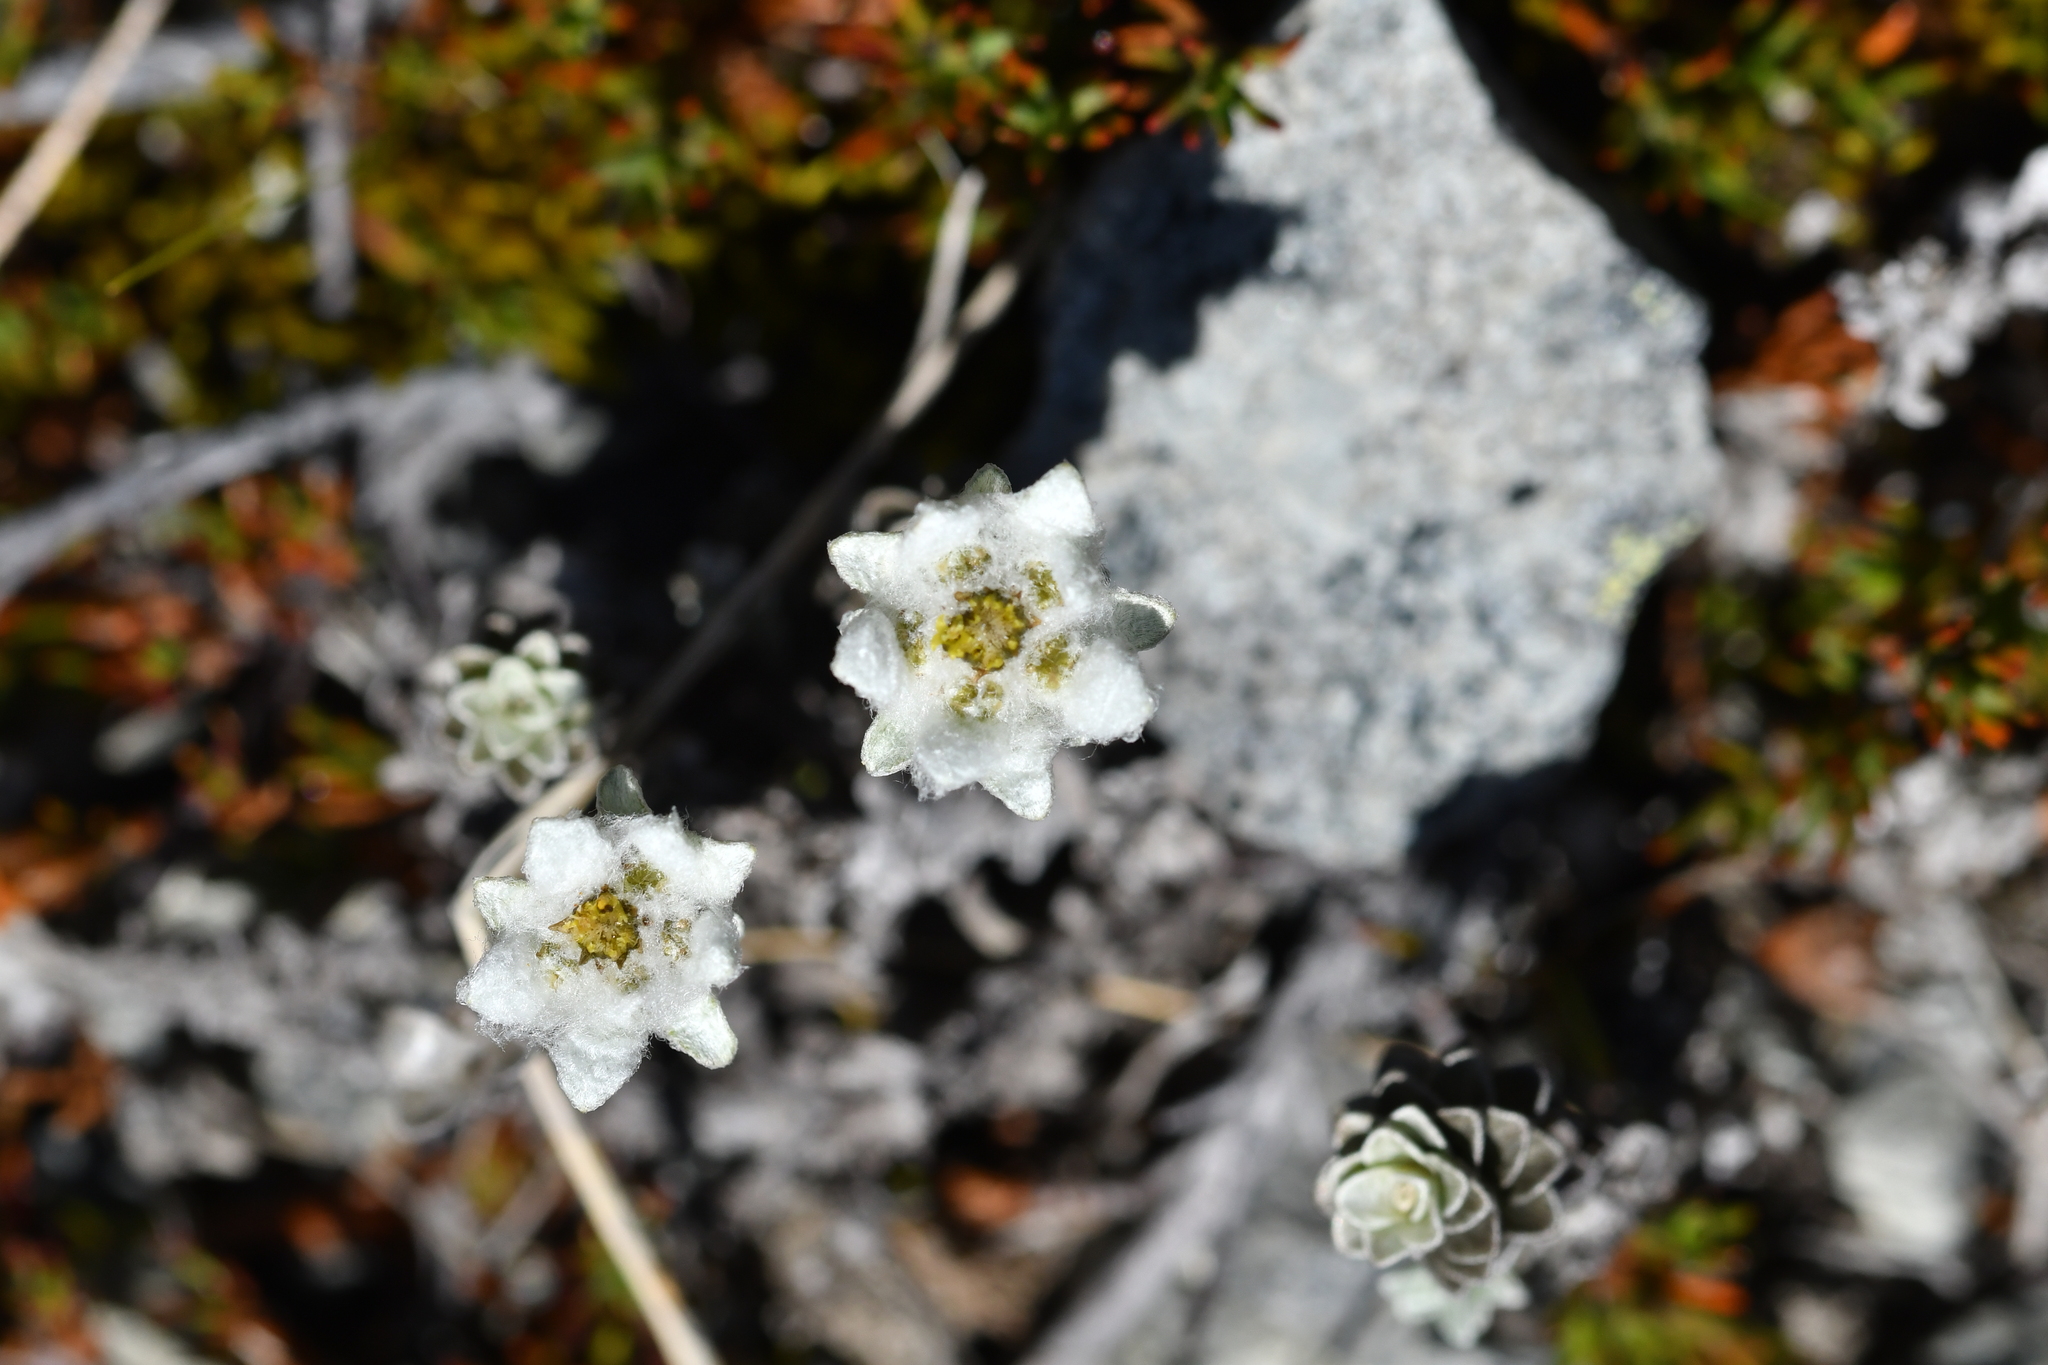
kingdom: Plantae
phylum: Tracheophyta
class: Magnoliopsida
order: Asterales
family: Asteraceae
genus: Leucogenes
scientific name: Leucogenes grandiceps
